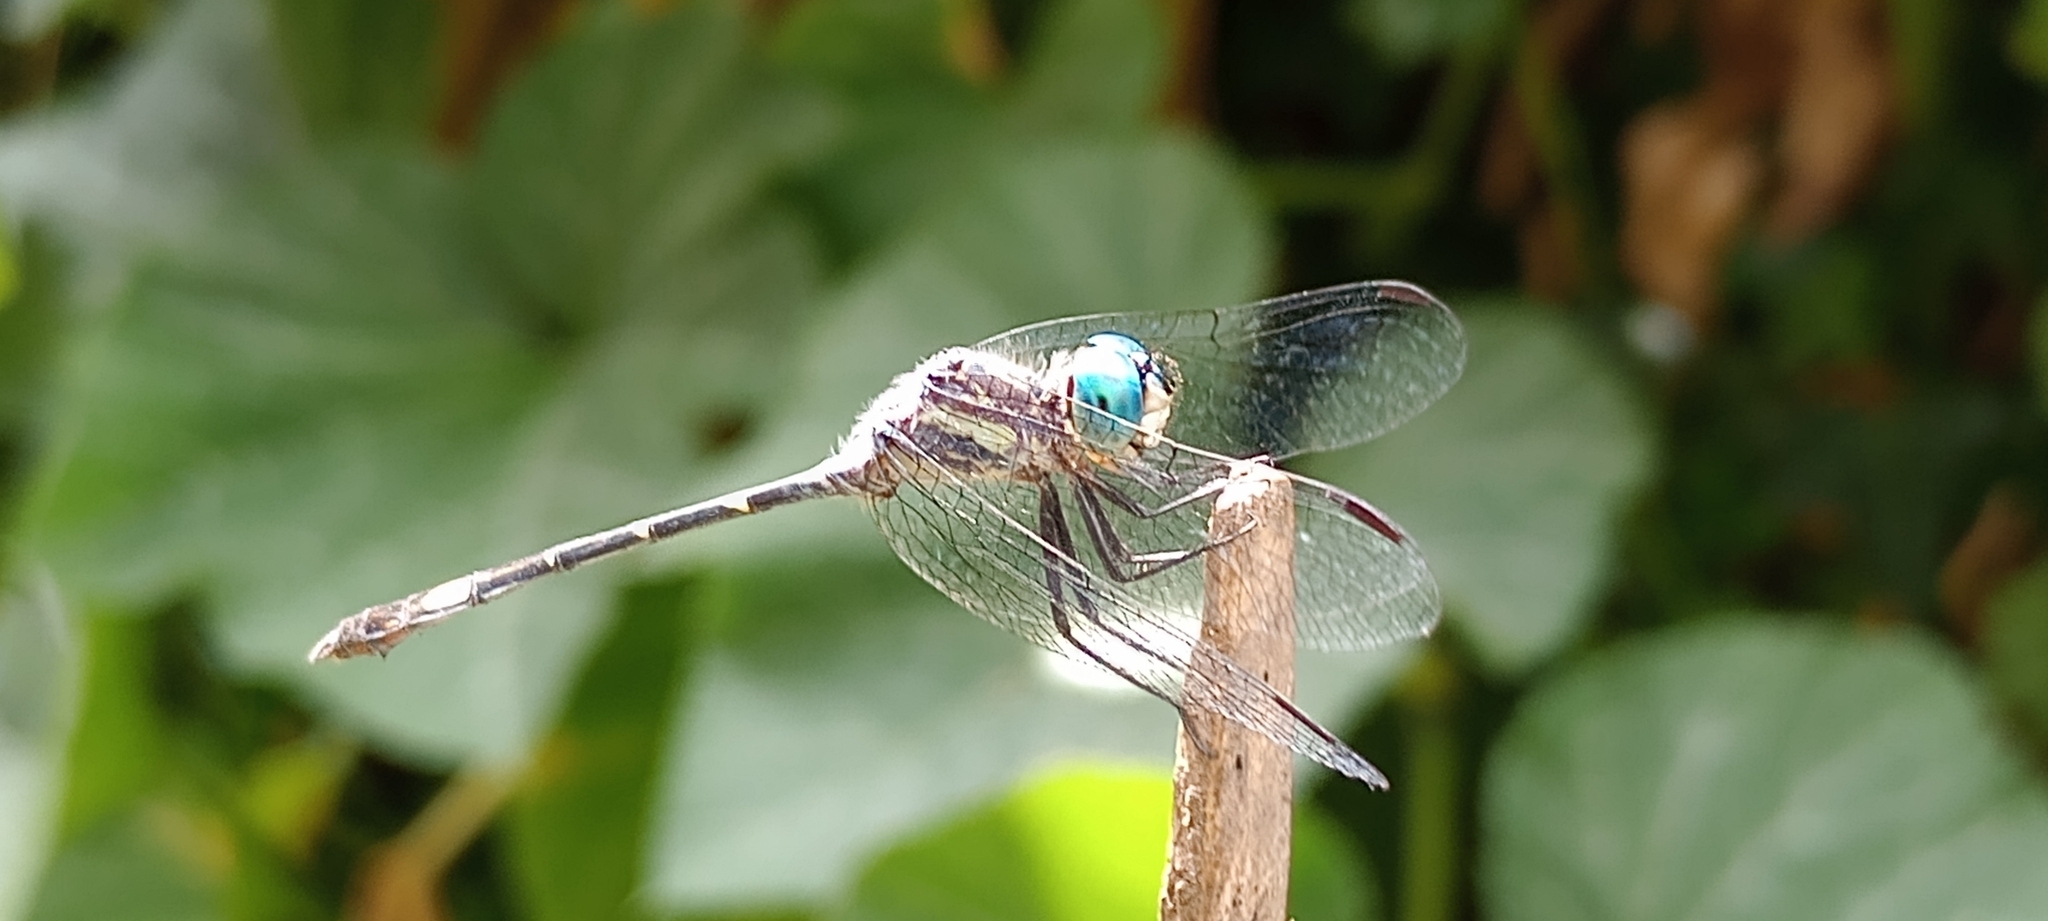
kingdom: Animalia
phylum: Arthropoda
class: Insecta
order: Odonata
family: Libellulidae
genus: Micrathyria
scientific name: Micrathyria hypodidyma
